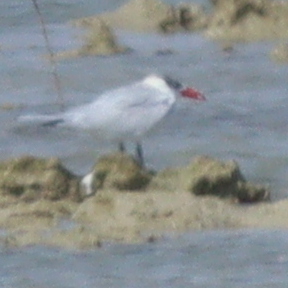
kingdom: Animalia
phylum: Chordata
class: Aves
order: Charadriiformes
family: Laridae
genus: Hydroprogne
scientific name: Hydroprogne caspia
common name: Caspian tern
